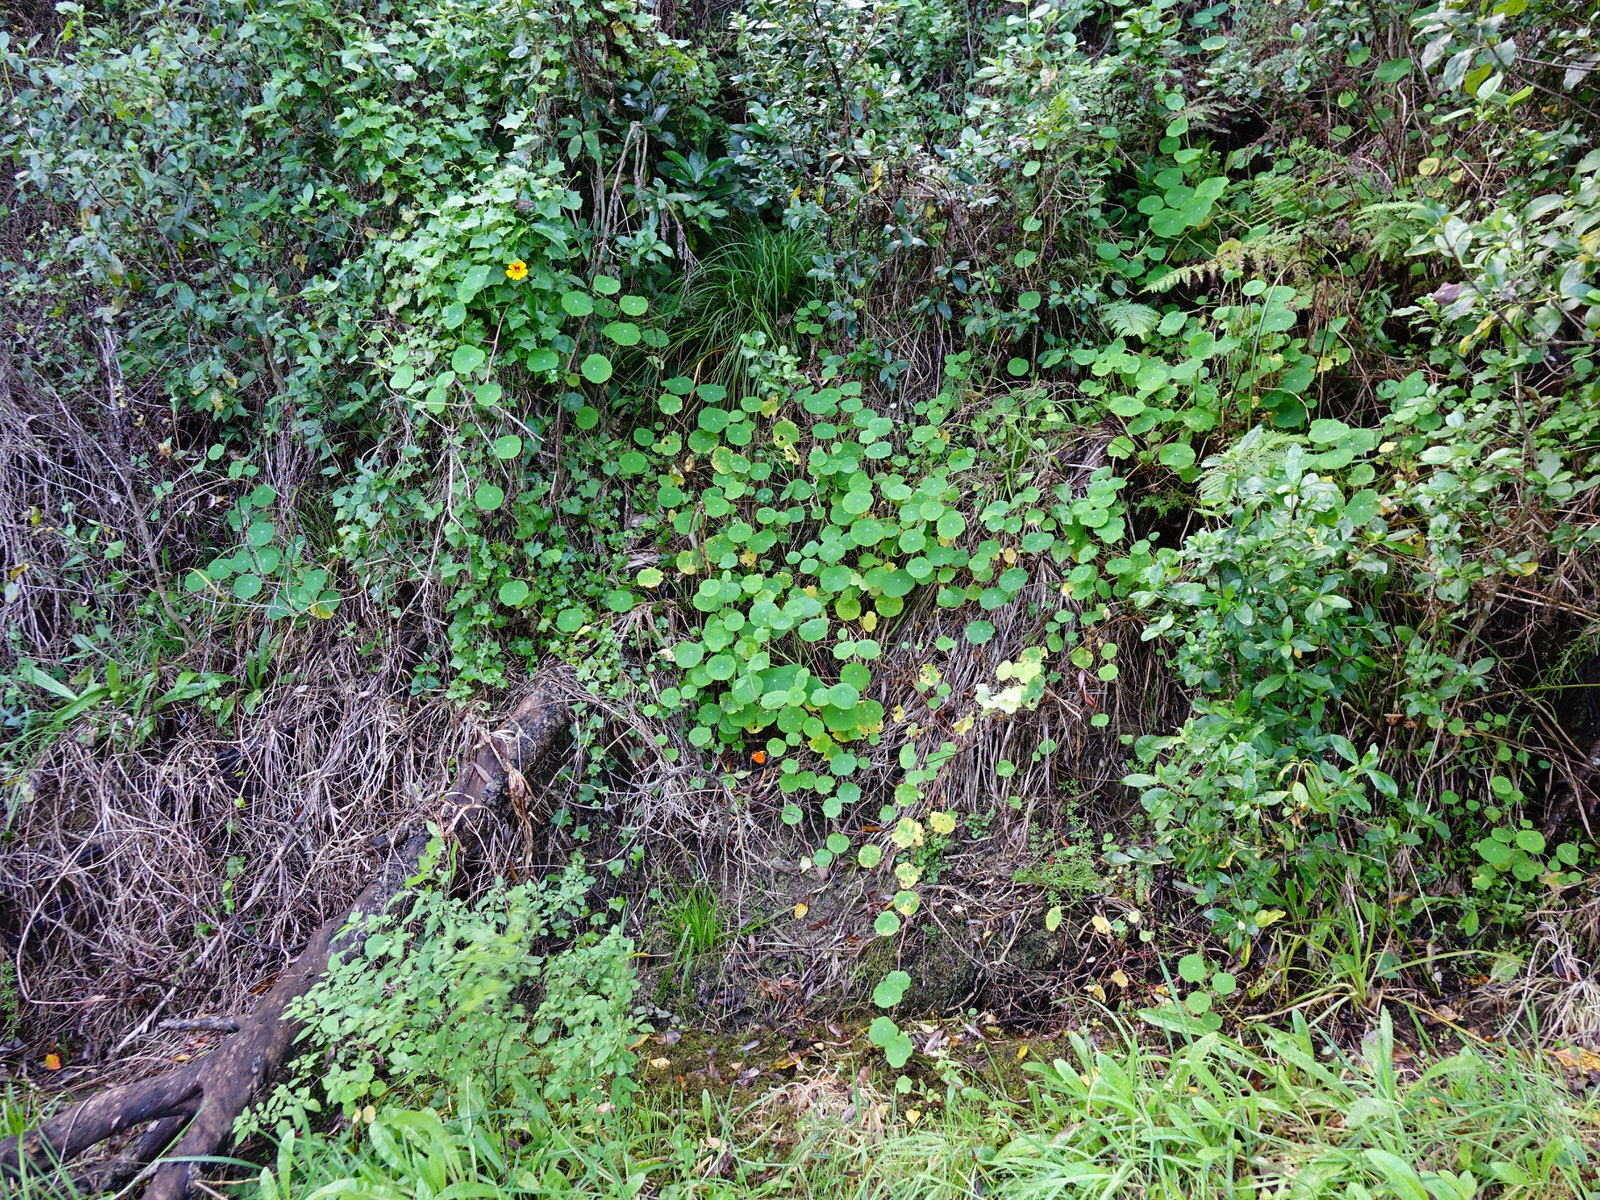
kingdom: Plantae
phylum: Tracheophyta
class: Magnoliopsida
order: Brassicales
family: Tropaeolaceae
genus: Tropaeolum
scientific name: Tropaeolum majus
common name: Nasturtium
